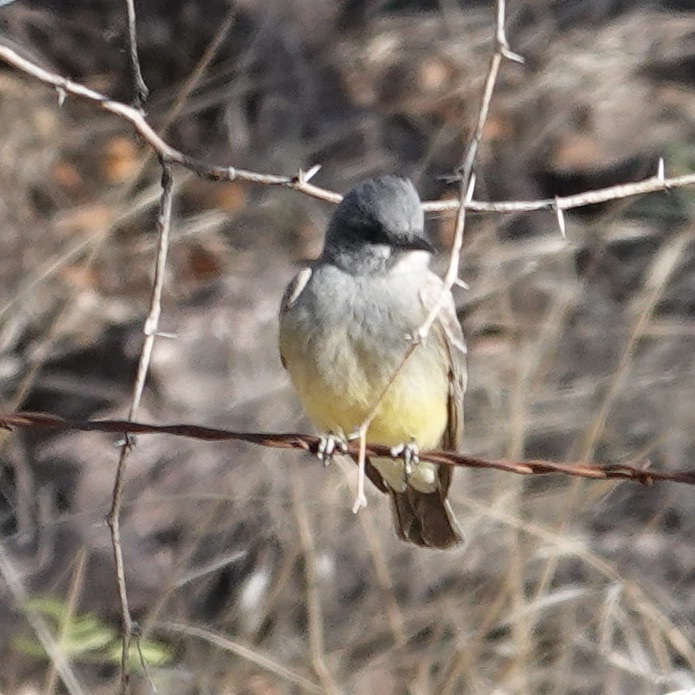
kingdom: Animalia
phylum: Chordata
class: Aves
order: Passeriformes
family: Tyrannidae
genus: Tyrannus
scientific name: Tyrannus vociferans
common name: Cassin's kingbird
